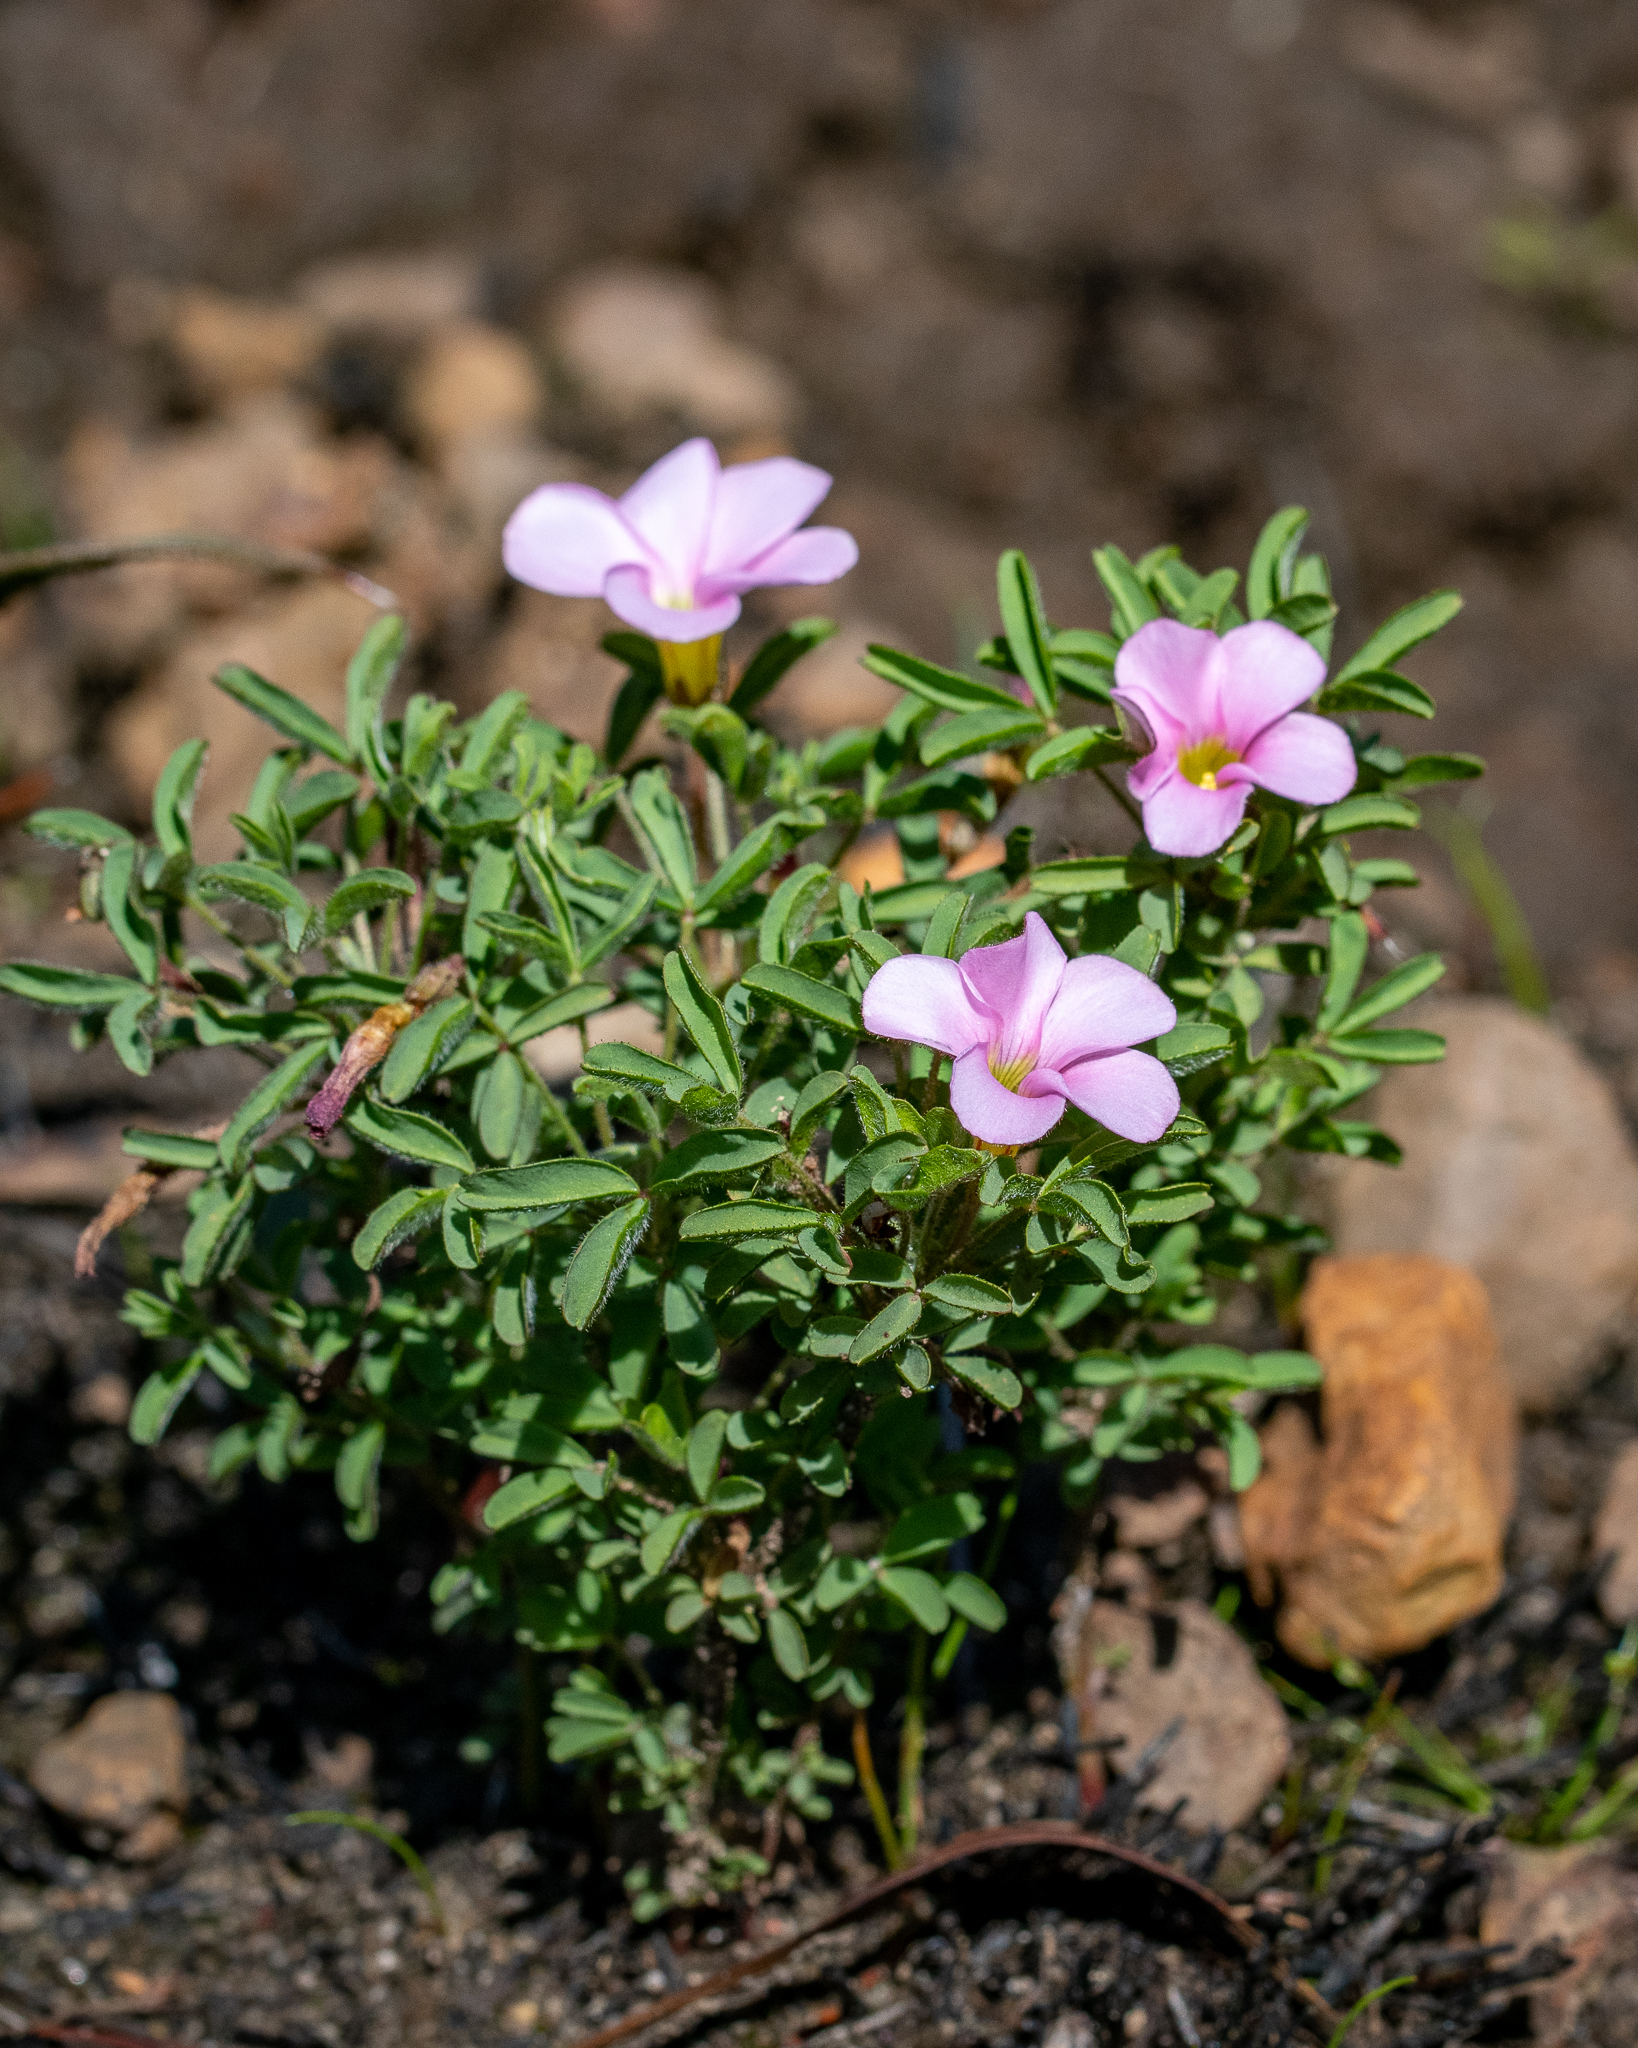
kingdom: Plantae
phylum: Tracheophyta
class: Magnoliopsida
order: Oxalidales
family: Oxalidaceae
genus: Oxalis
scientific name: Oxalis multicaulis
